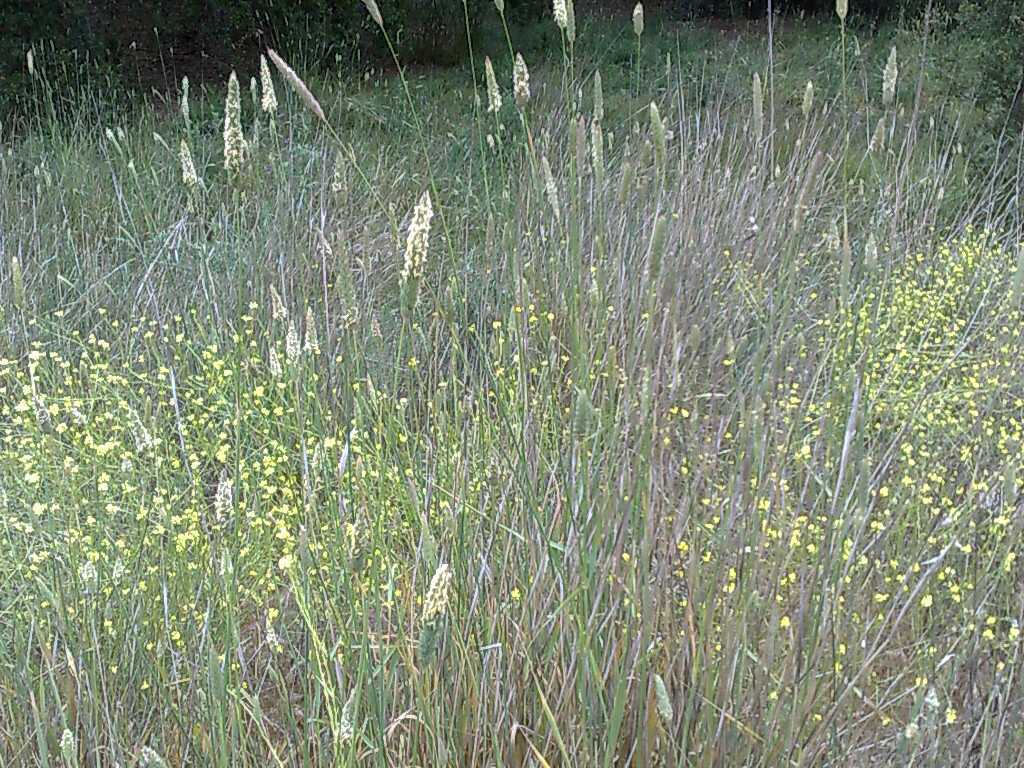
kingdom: Plantae
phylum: Tracheophyta
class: Magnoliopsida
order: Brassicales
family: Brassicaceae
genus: Hirschfeldia
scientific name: Hirschfeldia incana
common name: Hoary mustard
